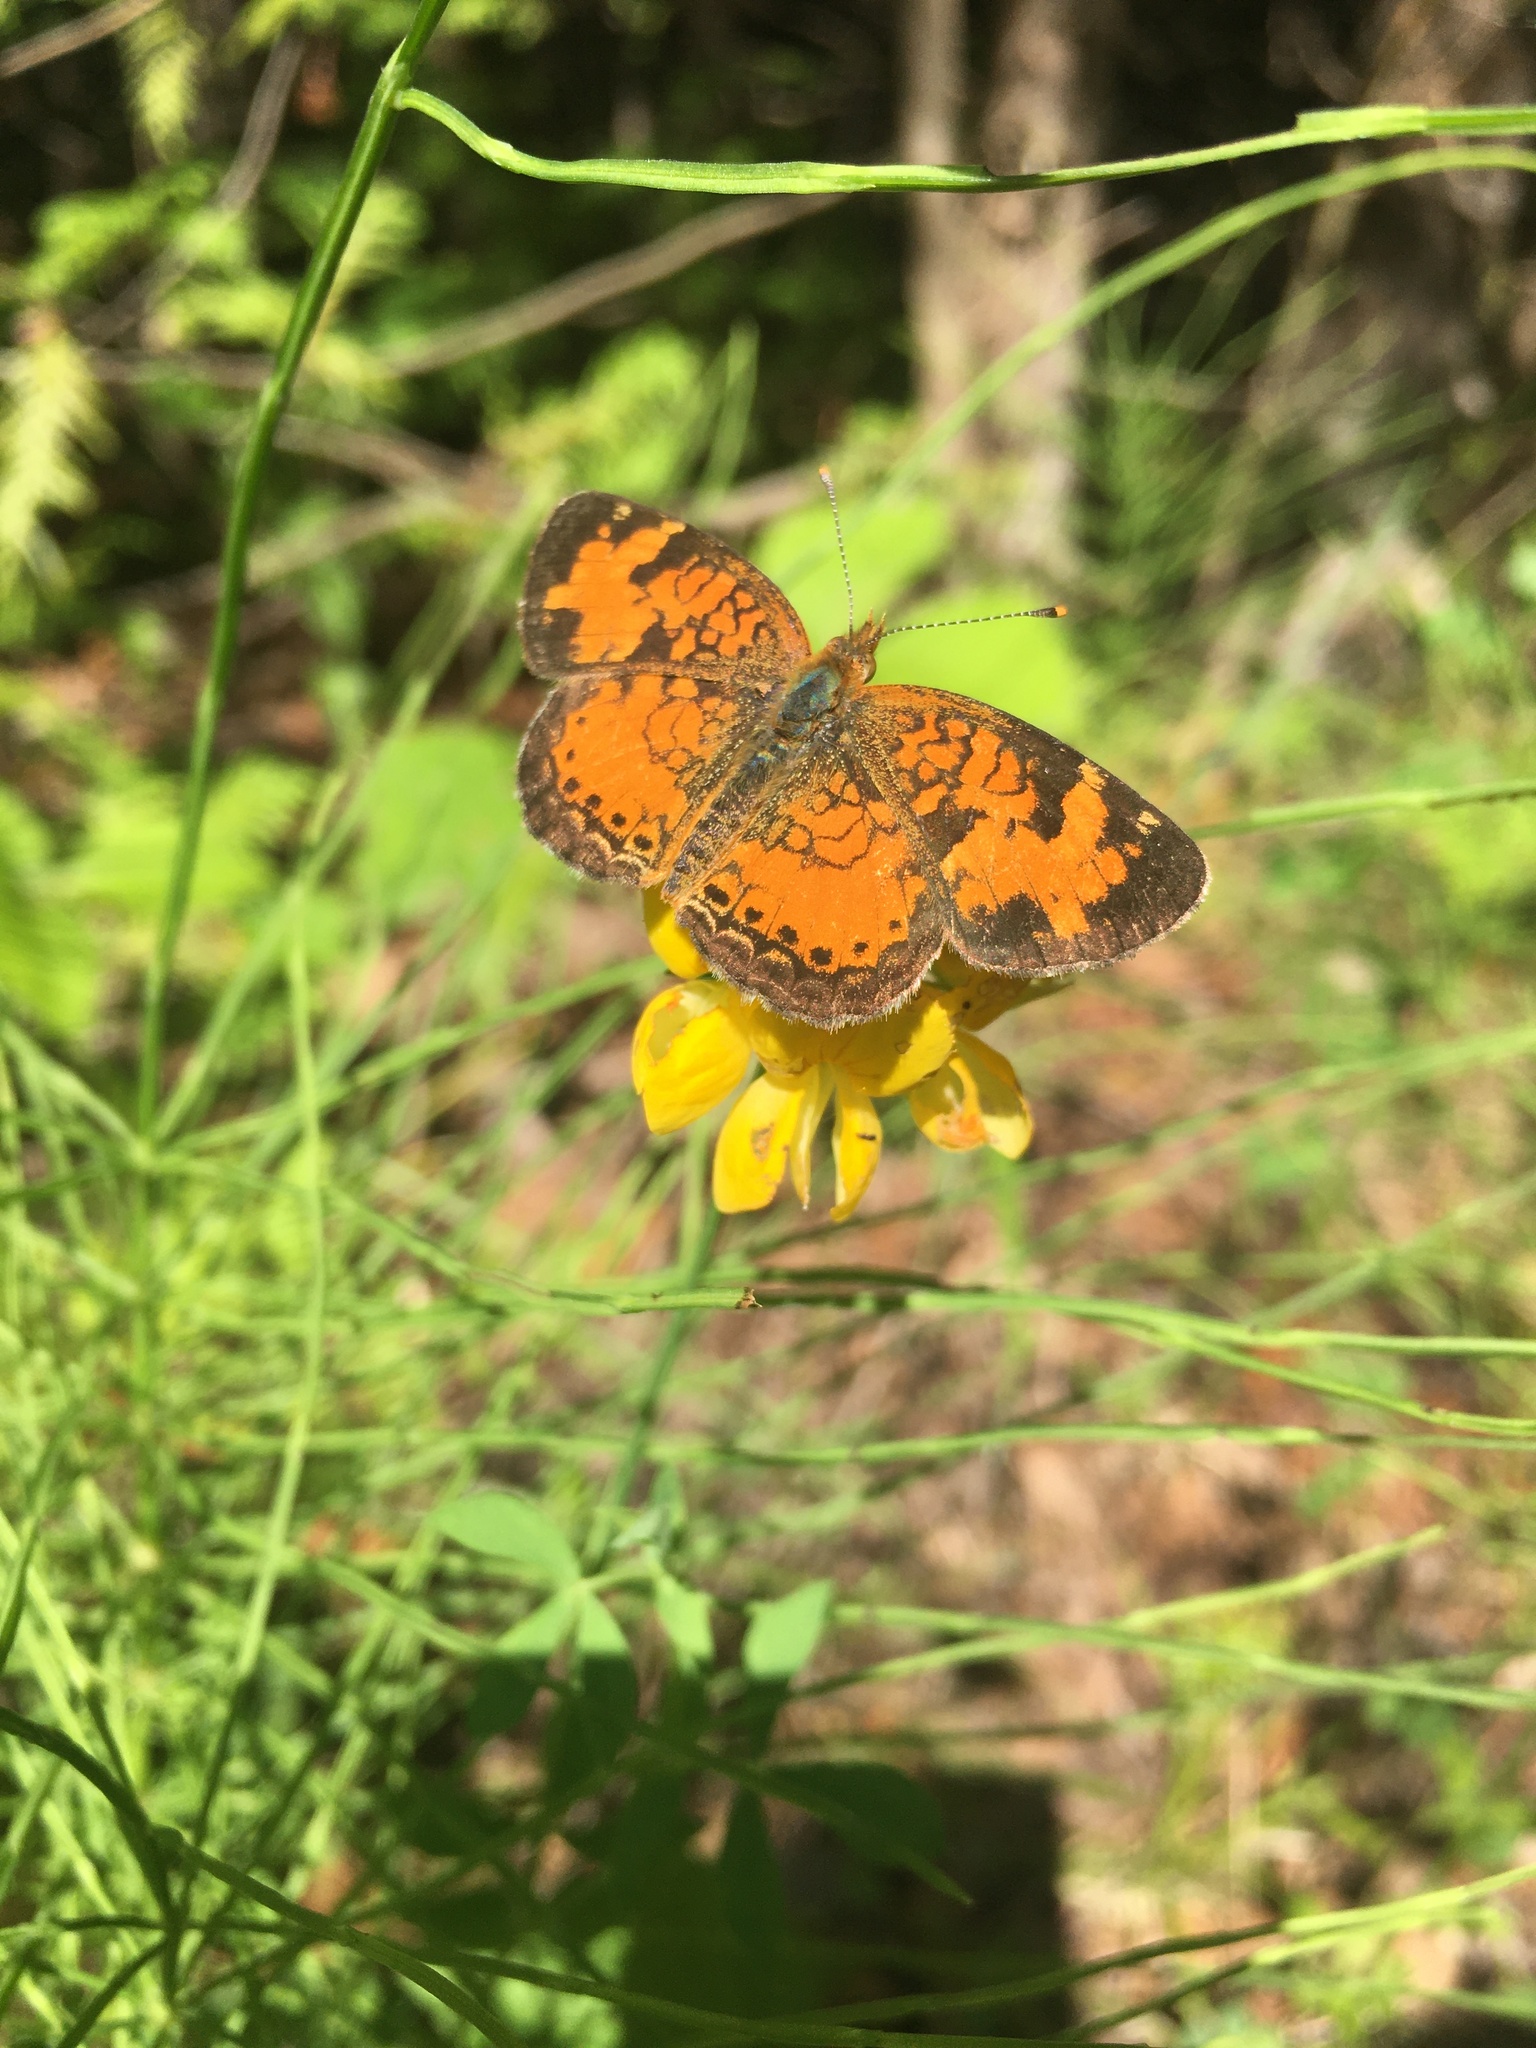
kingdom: Animalia
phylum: Arthropoda
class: Insecta
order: Lepidoptera
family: Nymphalidae
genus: Phyciodes
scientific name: Phyciodes tharos
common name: Pearl crescent
